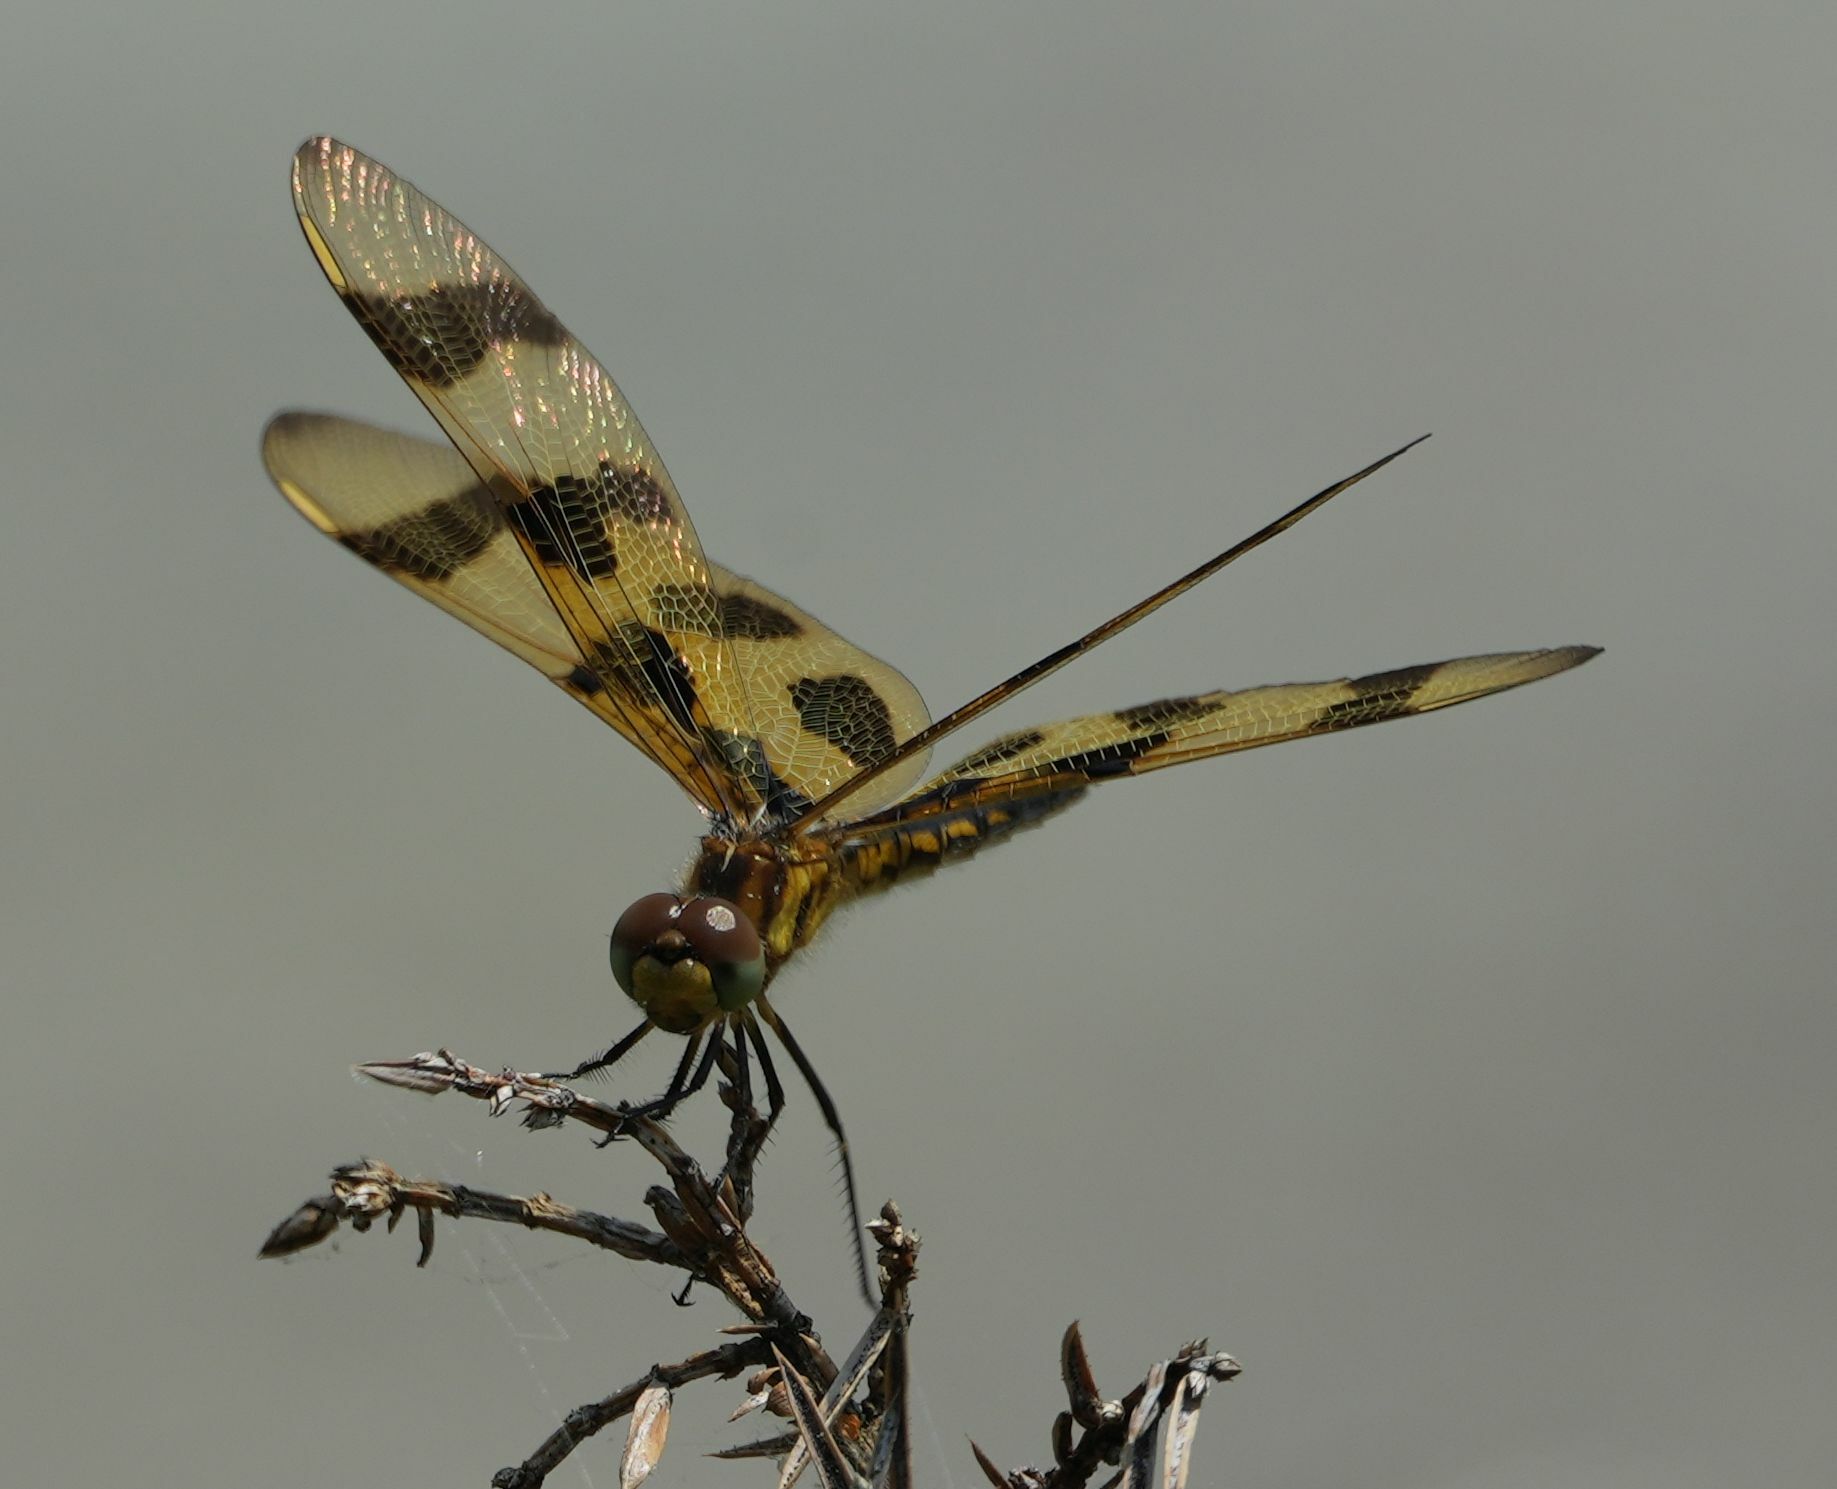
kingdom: Animalia
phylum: Arthropoda
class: Insecta
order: Odonata
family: Libellulidae
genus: Celithemis
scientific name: Celithemis eponina
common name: Halloween pennant
